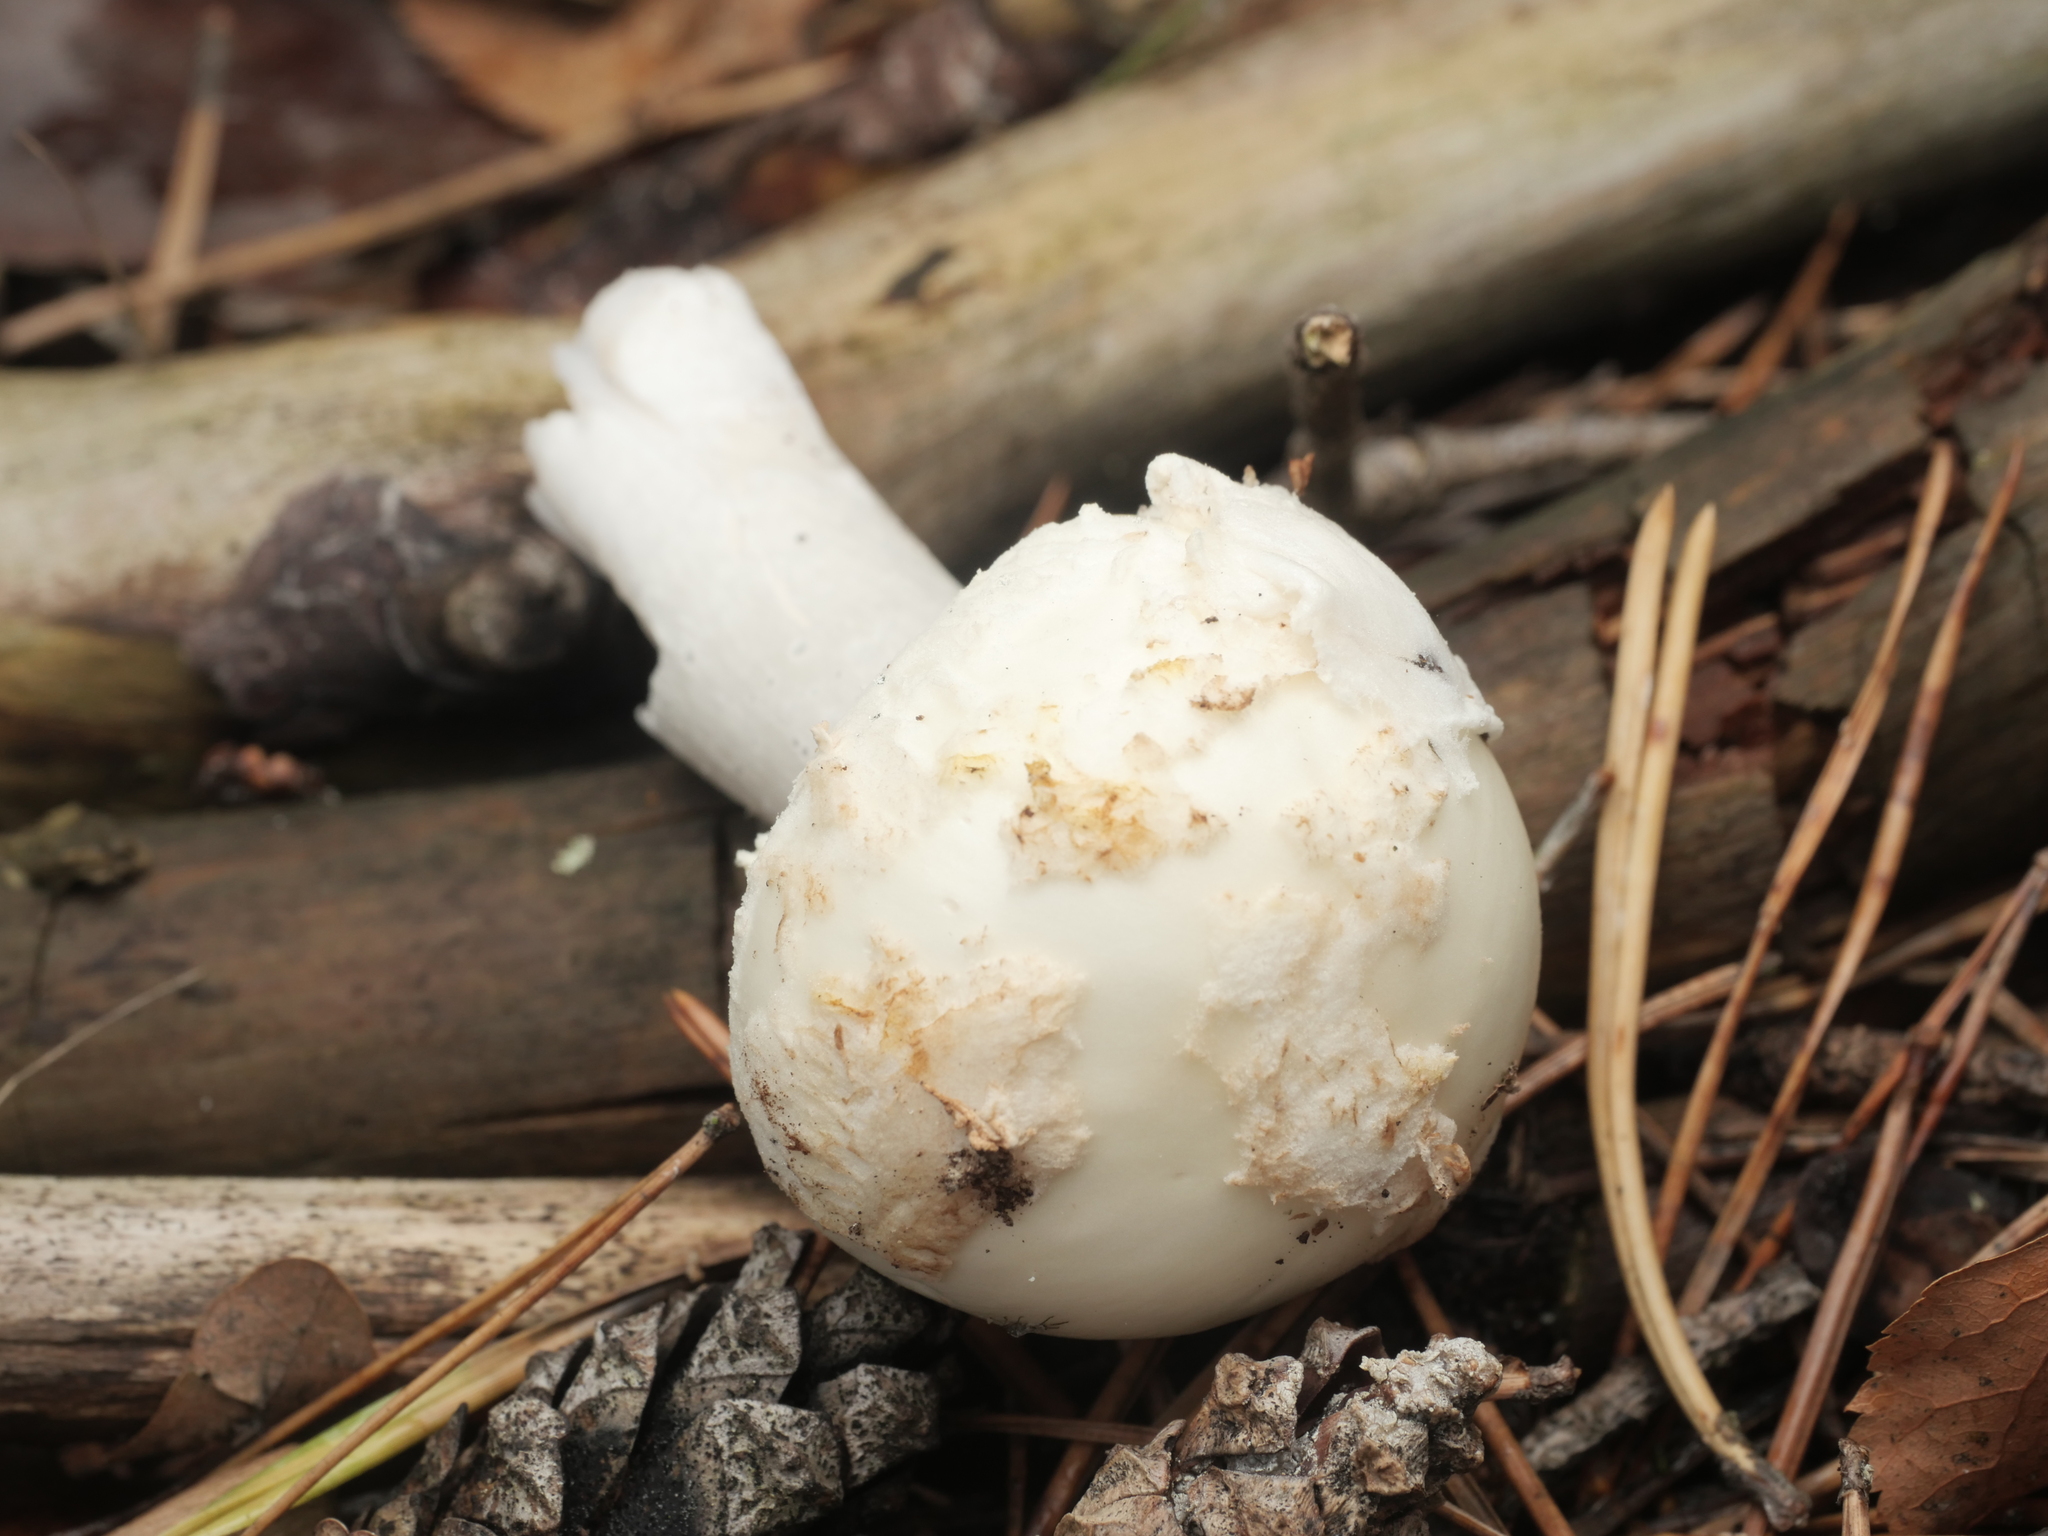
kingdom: Fungi
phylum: Basidiomycota
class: Agaricomycetes
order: Agaricales
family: Amanitaceae
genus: Amanita
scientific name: Amanita citrina
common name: False death-cap
